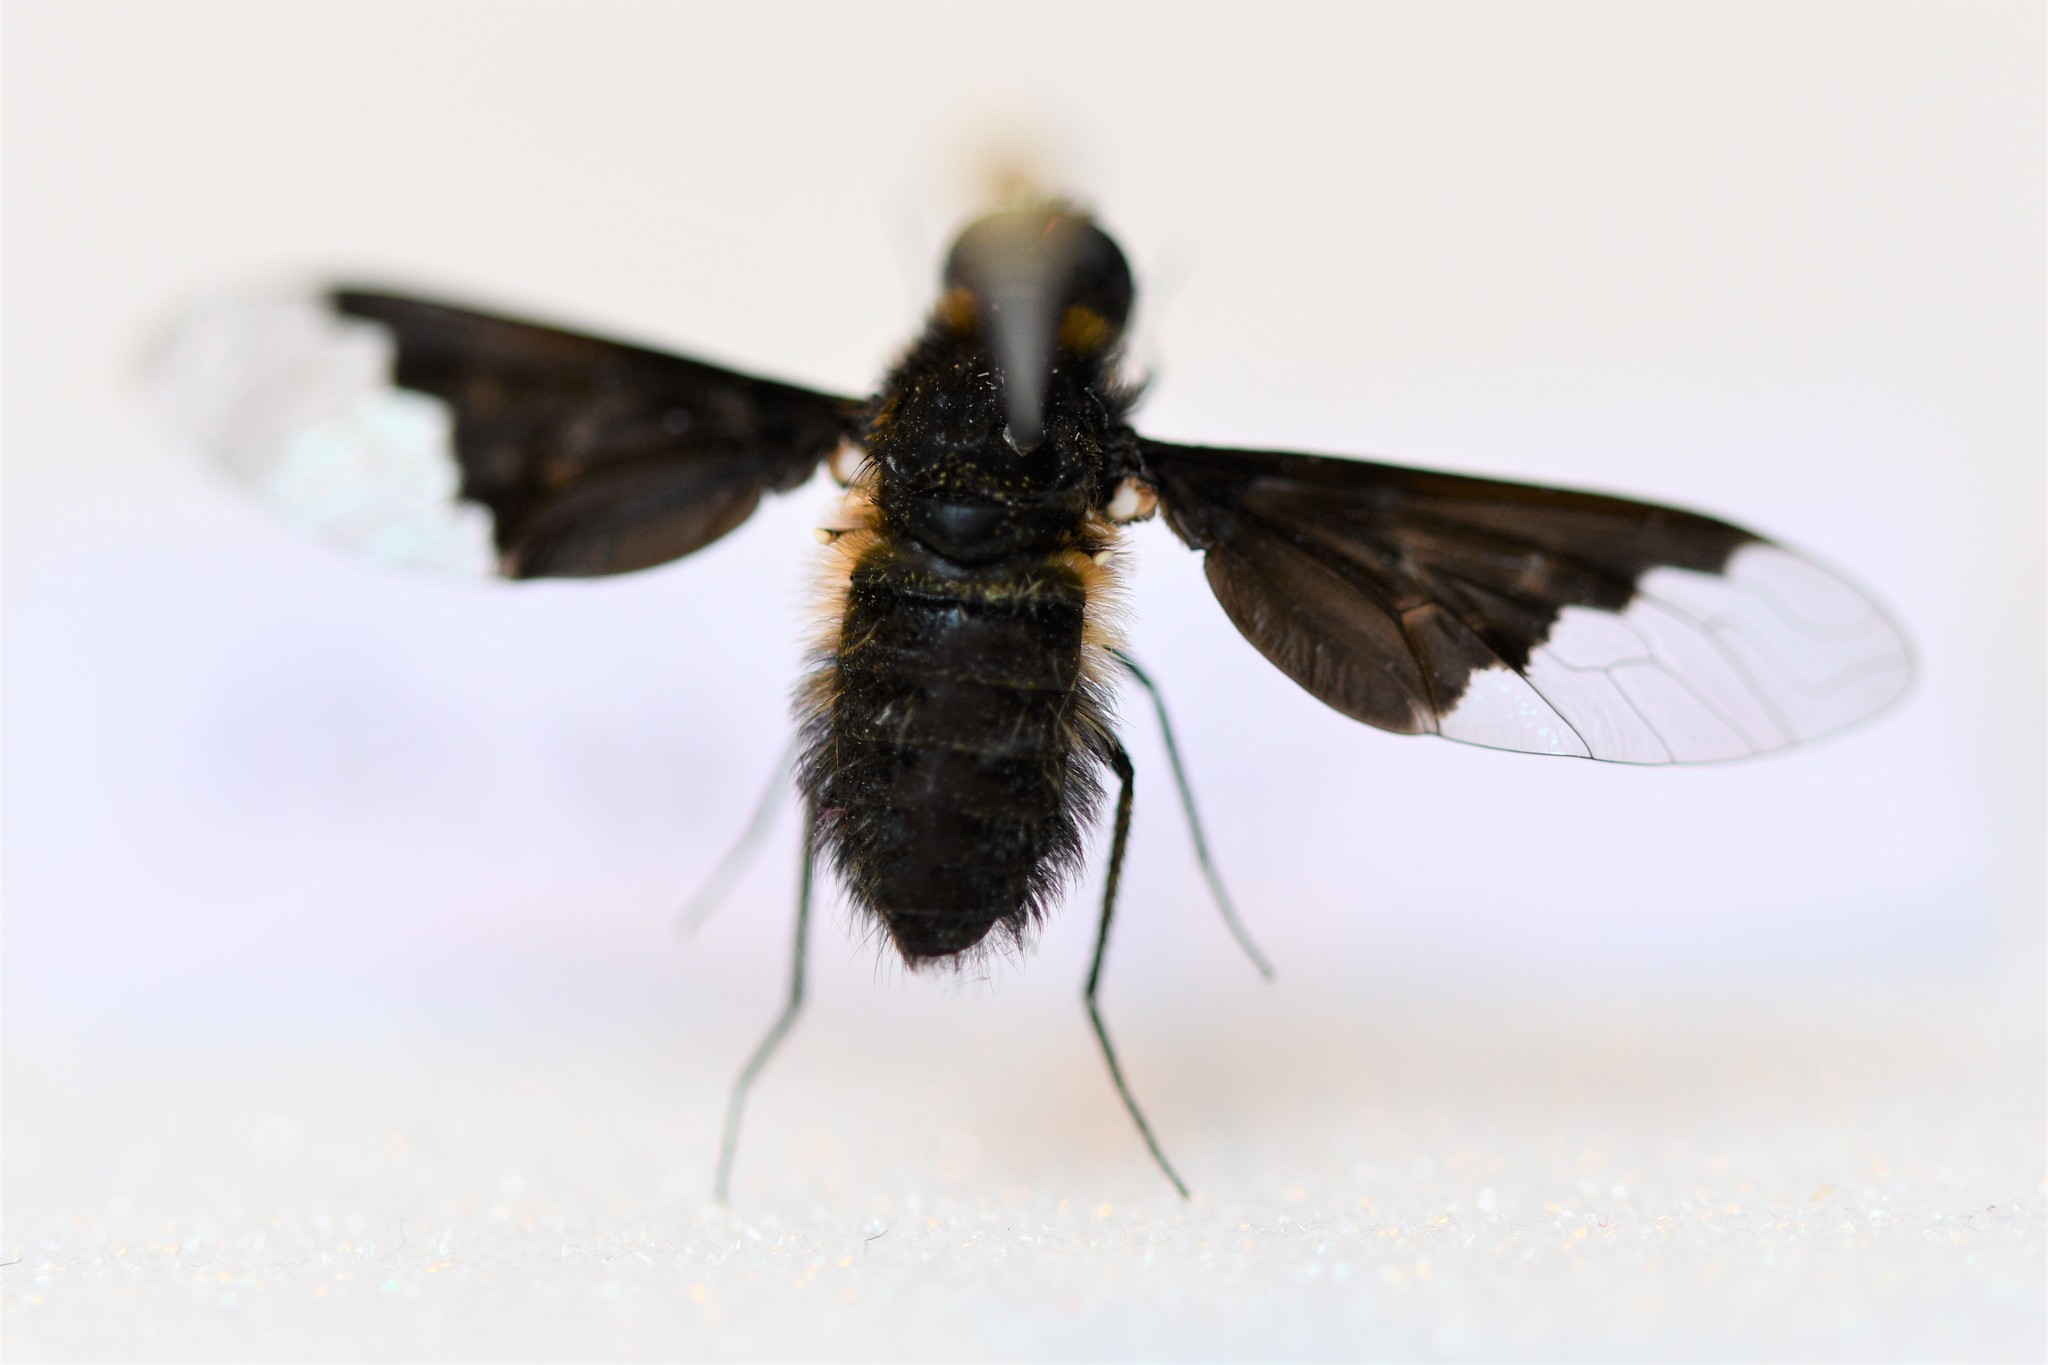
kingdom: Animalia
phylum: Arthropoda
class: Insecta
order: Diptera
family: Bombyliidae
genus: Hemipenthes
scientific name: Hemipenthes morio
